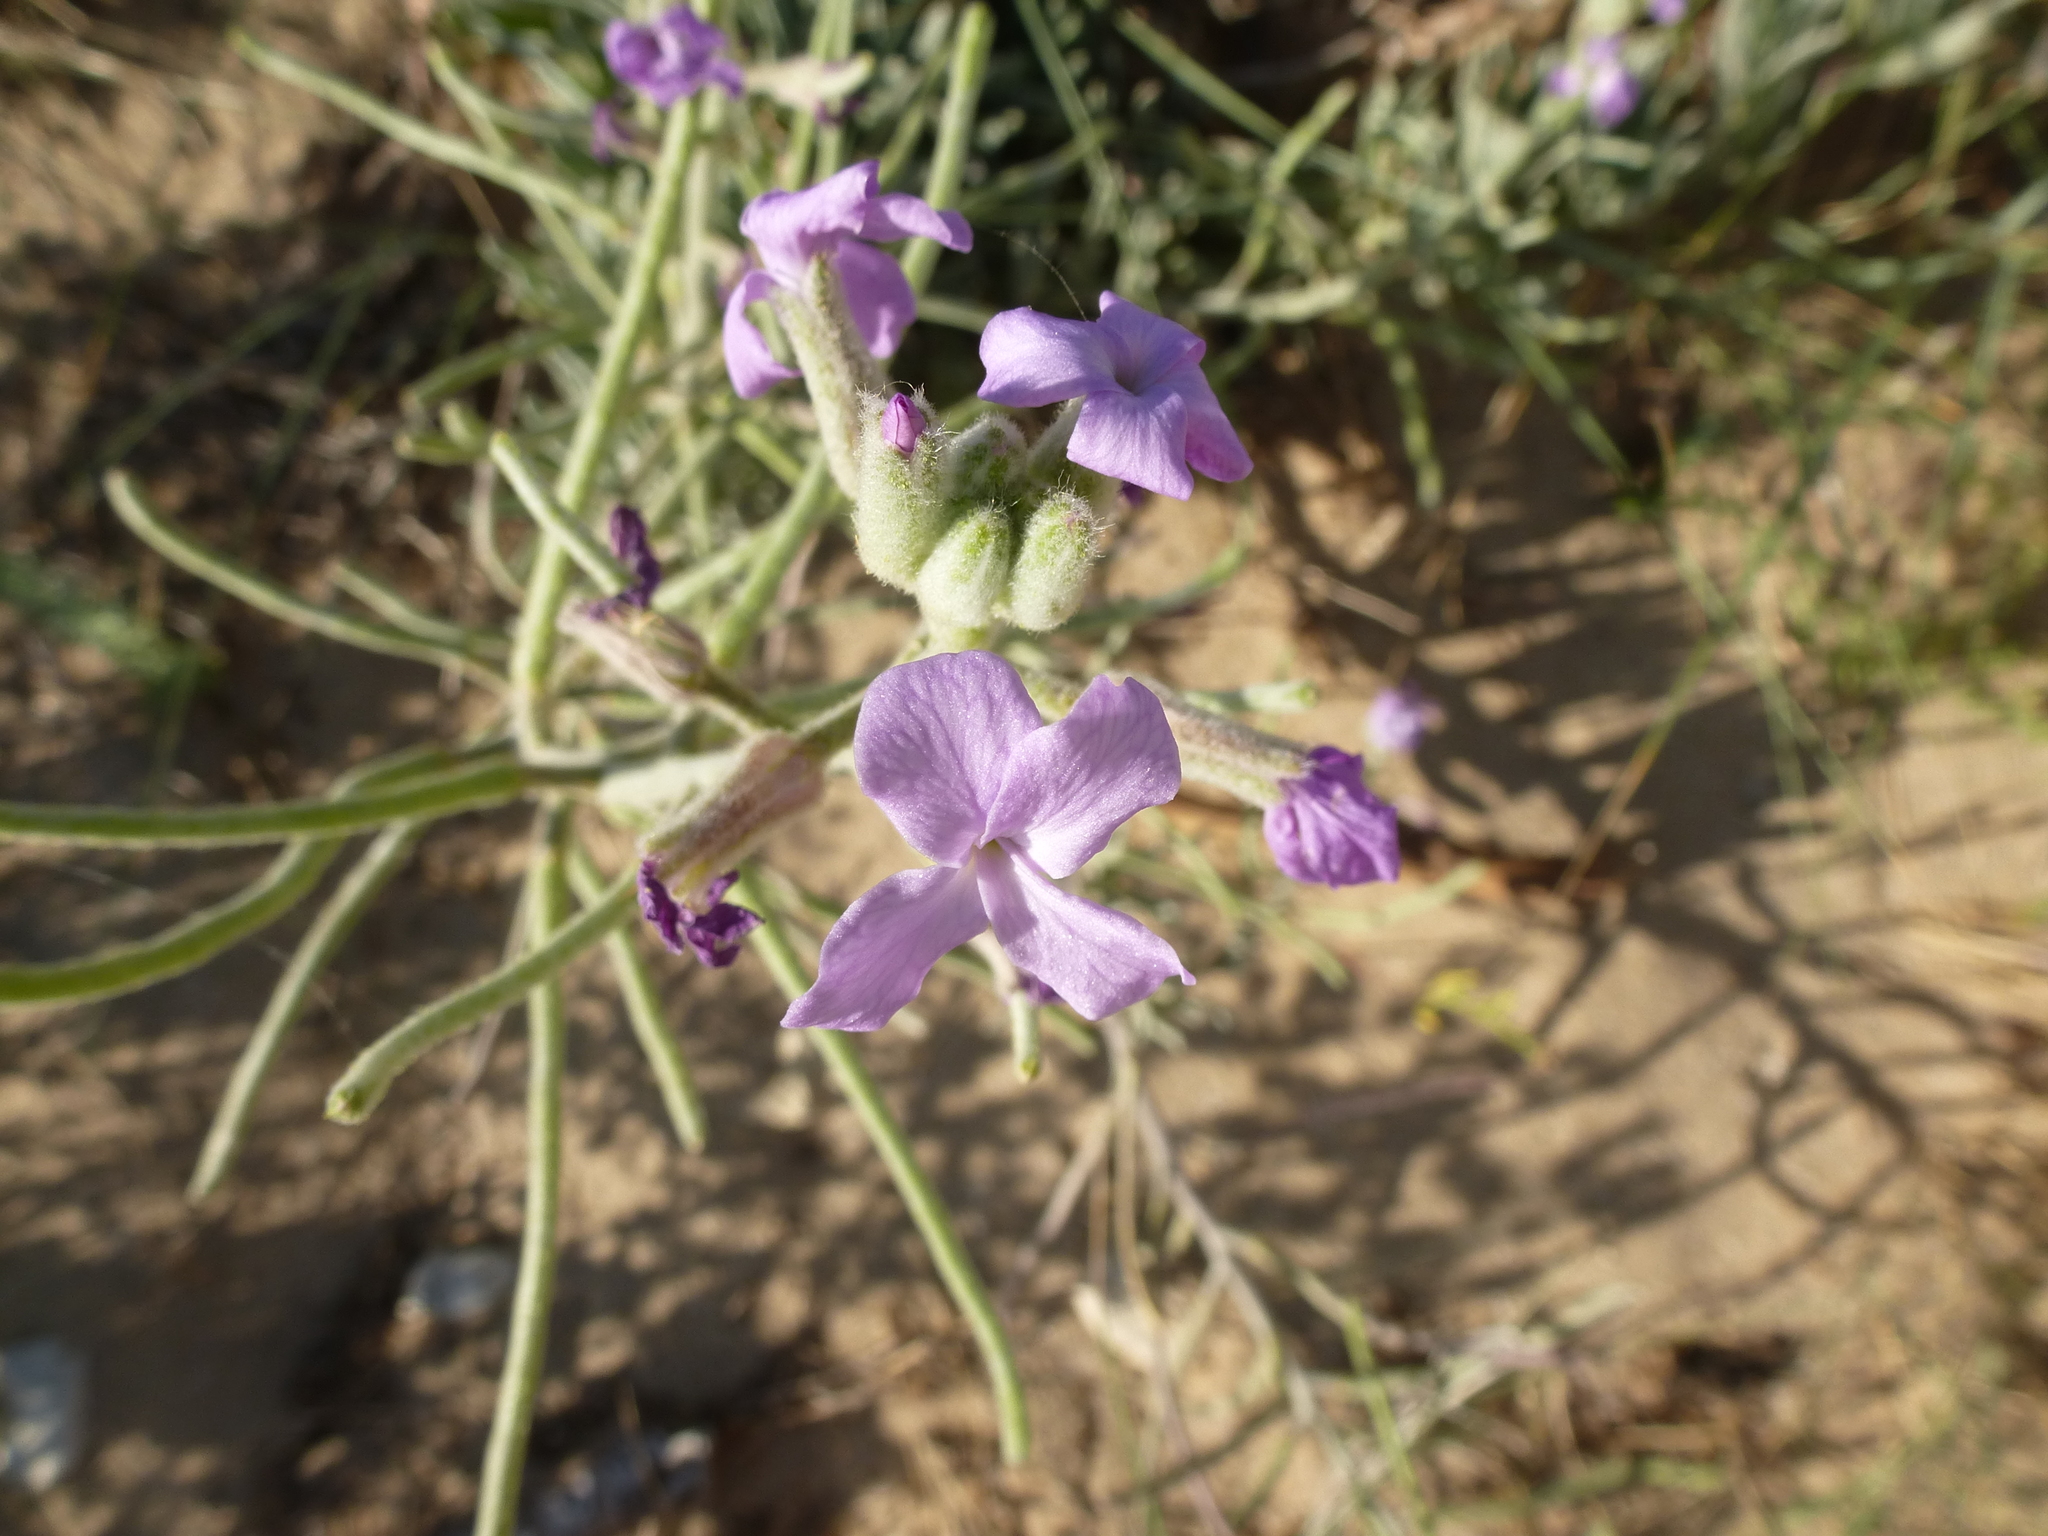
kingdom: Plantae
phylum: Tracheophyta
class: Magnoliopsida
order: Brassicales
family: Brassicaceae
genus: Matthiola
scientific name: Matthiola sinuata
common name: Sea stock
